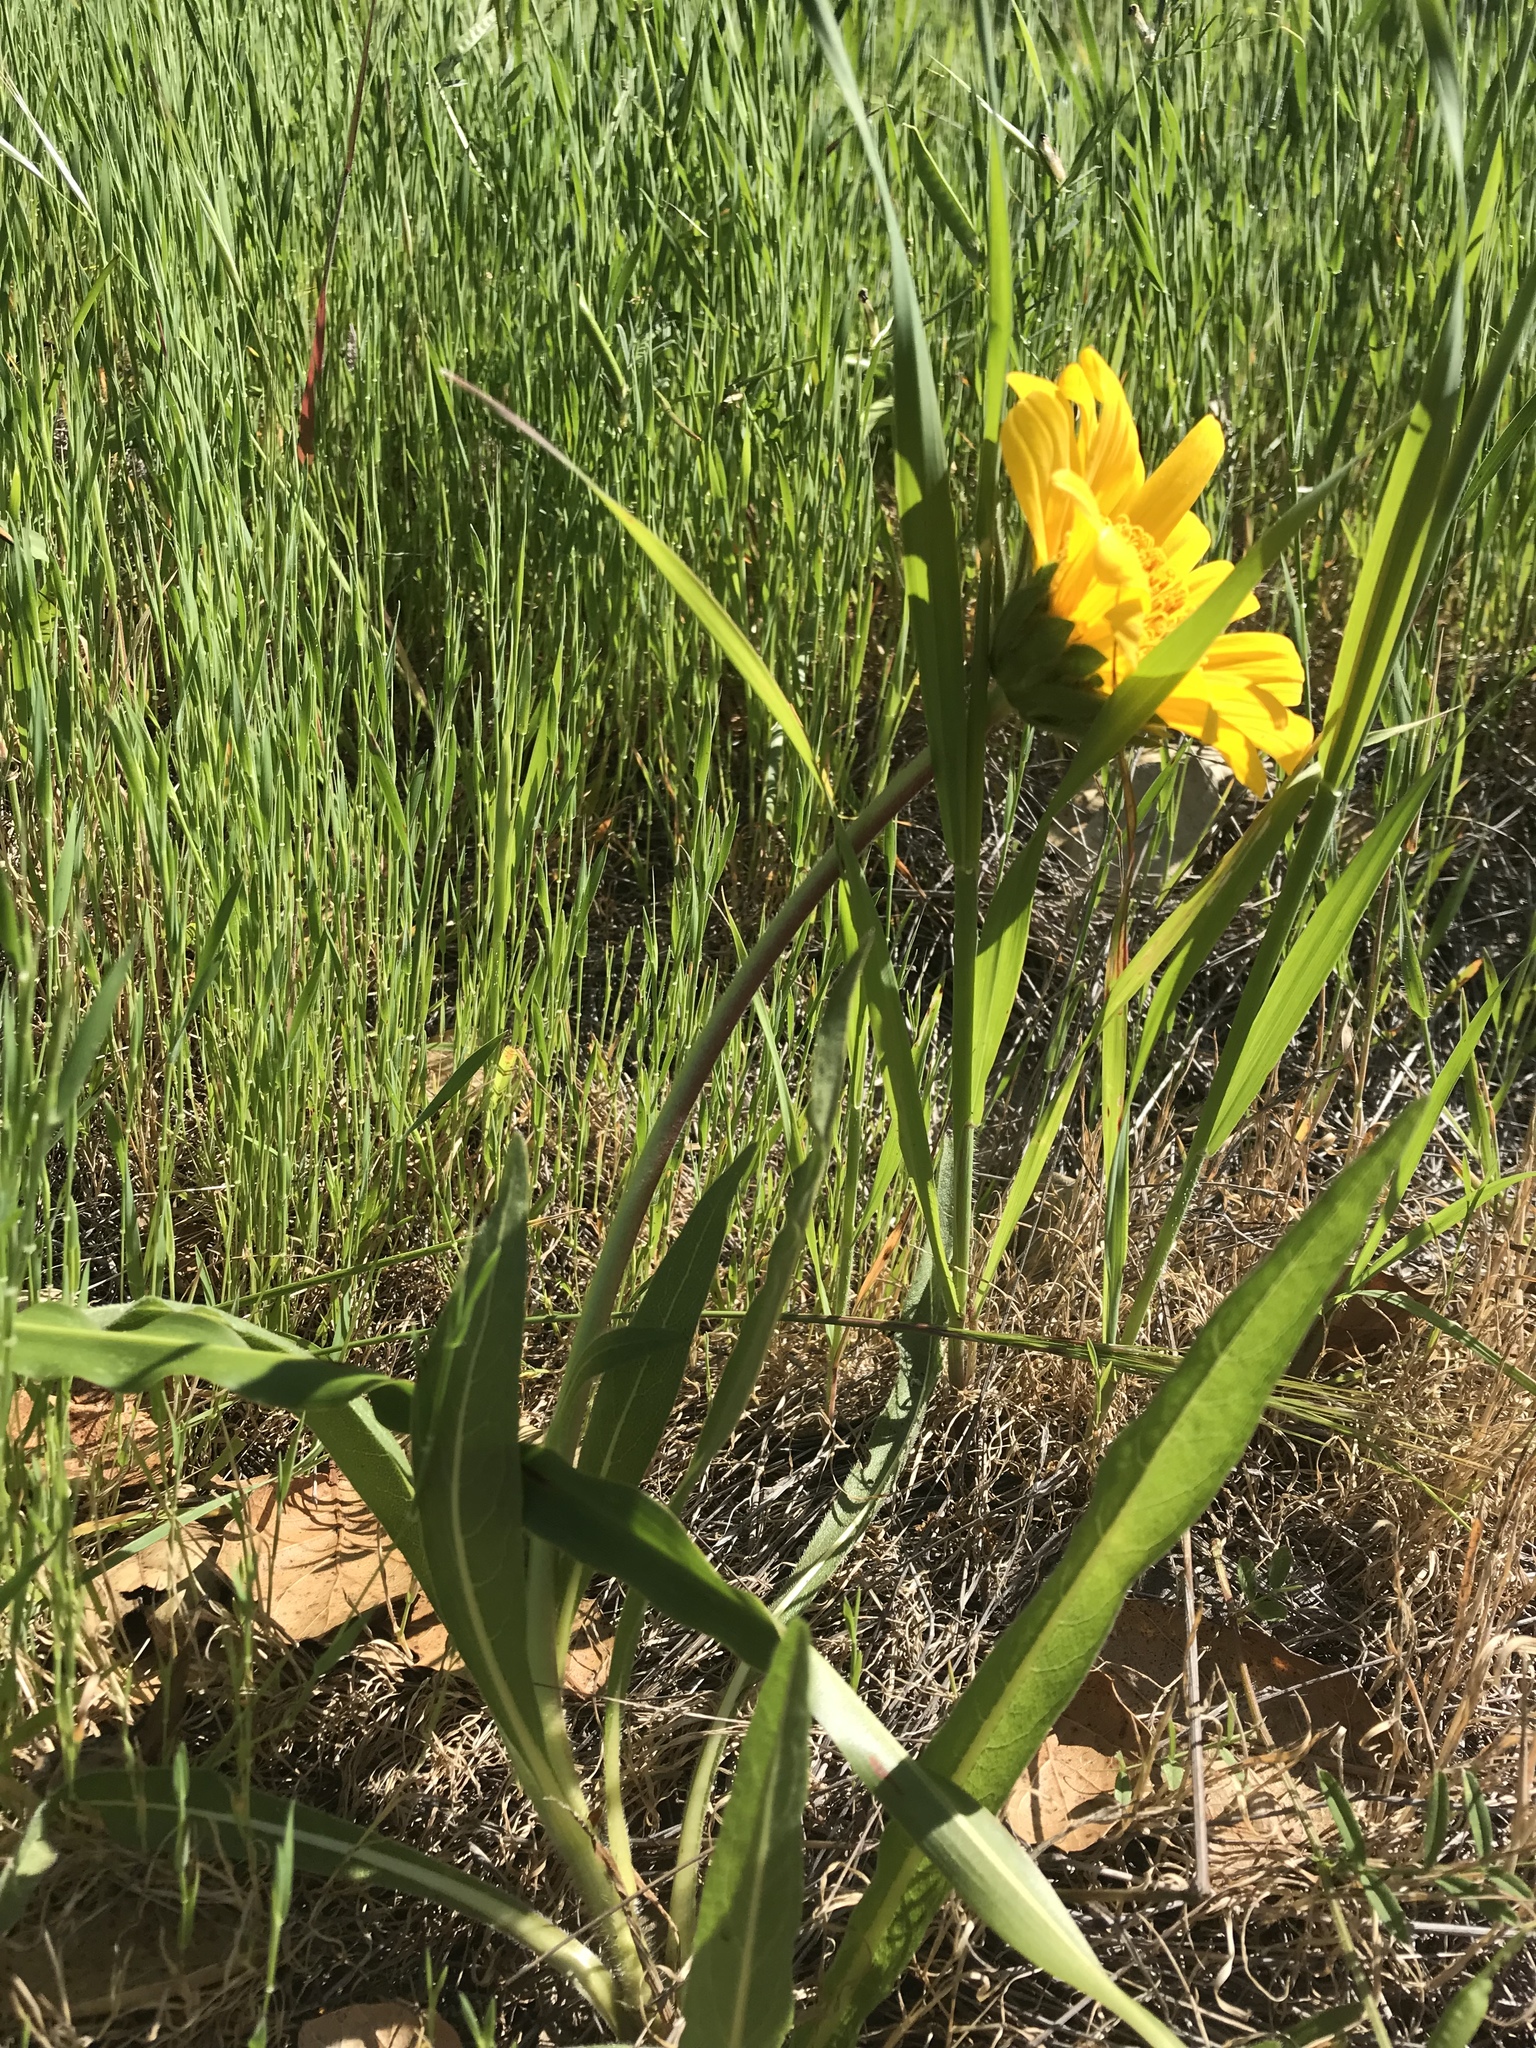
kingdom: Plantae
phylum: Tracheophyta
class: Magnoliopsida
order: Asterales
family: Asteraceae
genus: Wyethia
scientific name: Wyethia angustifolia
